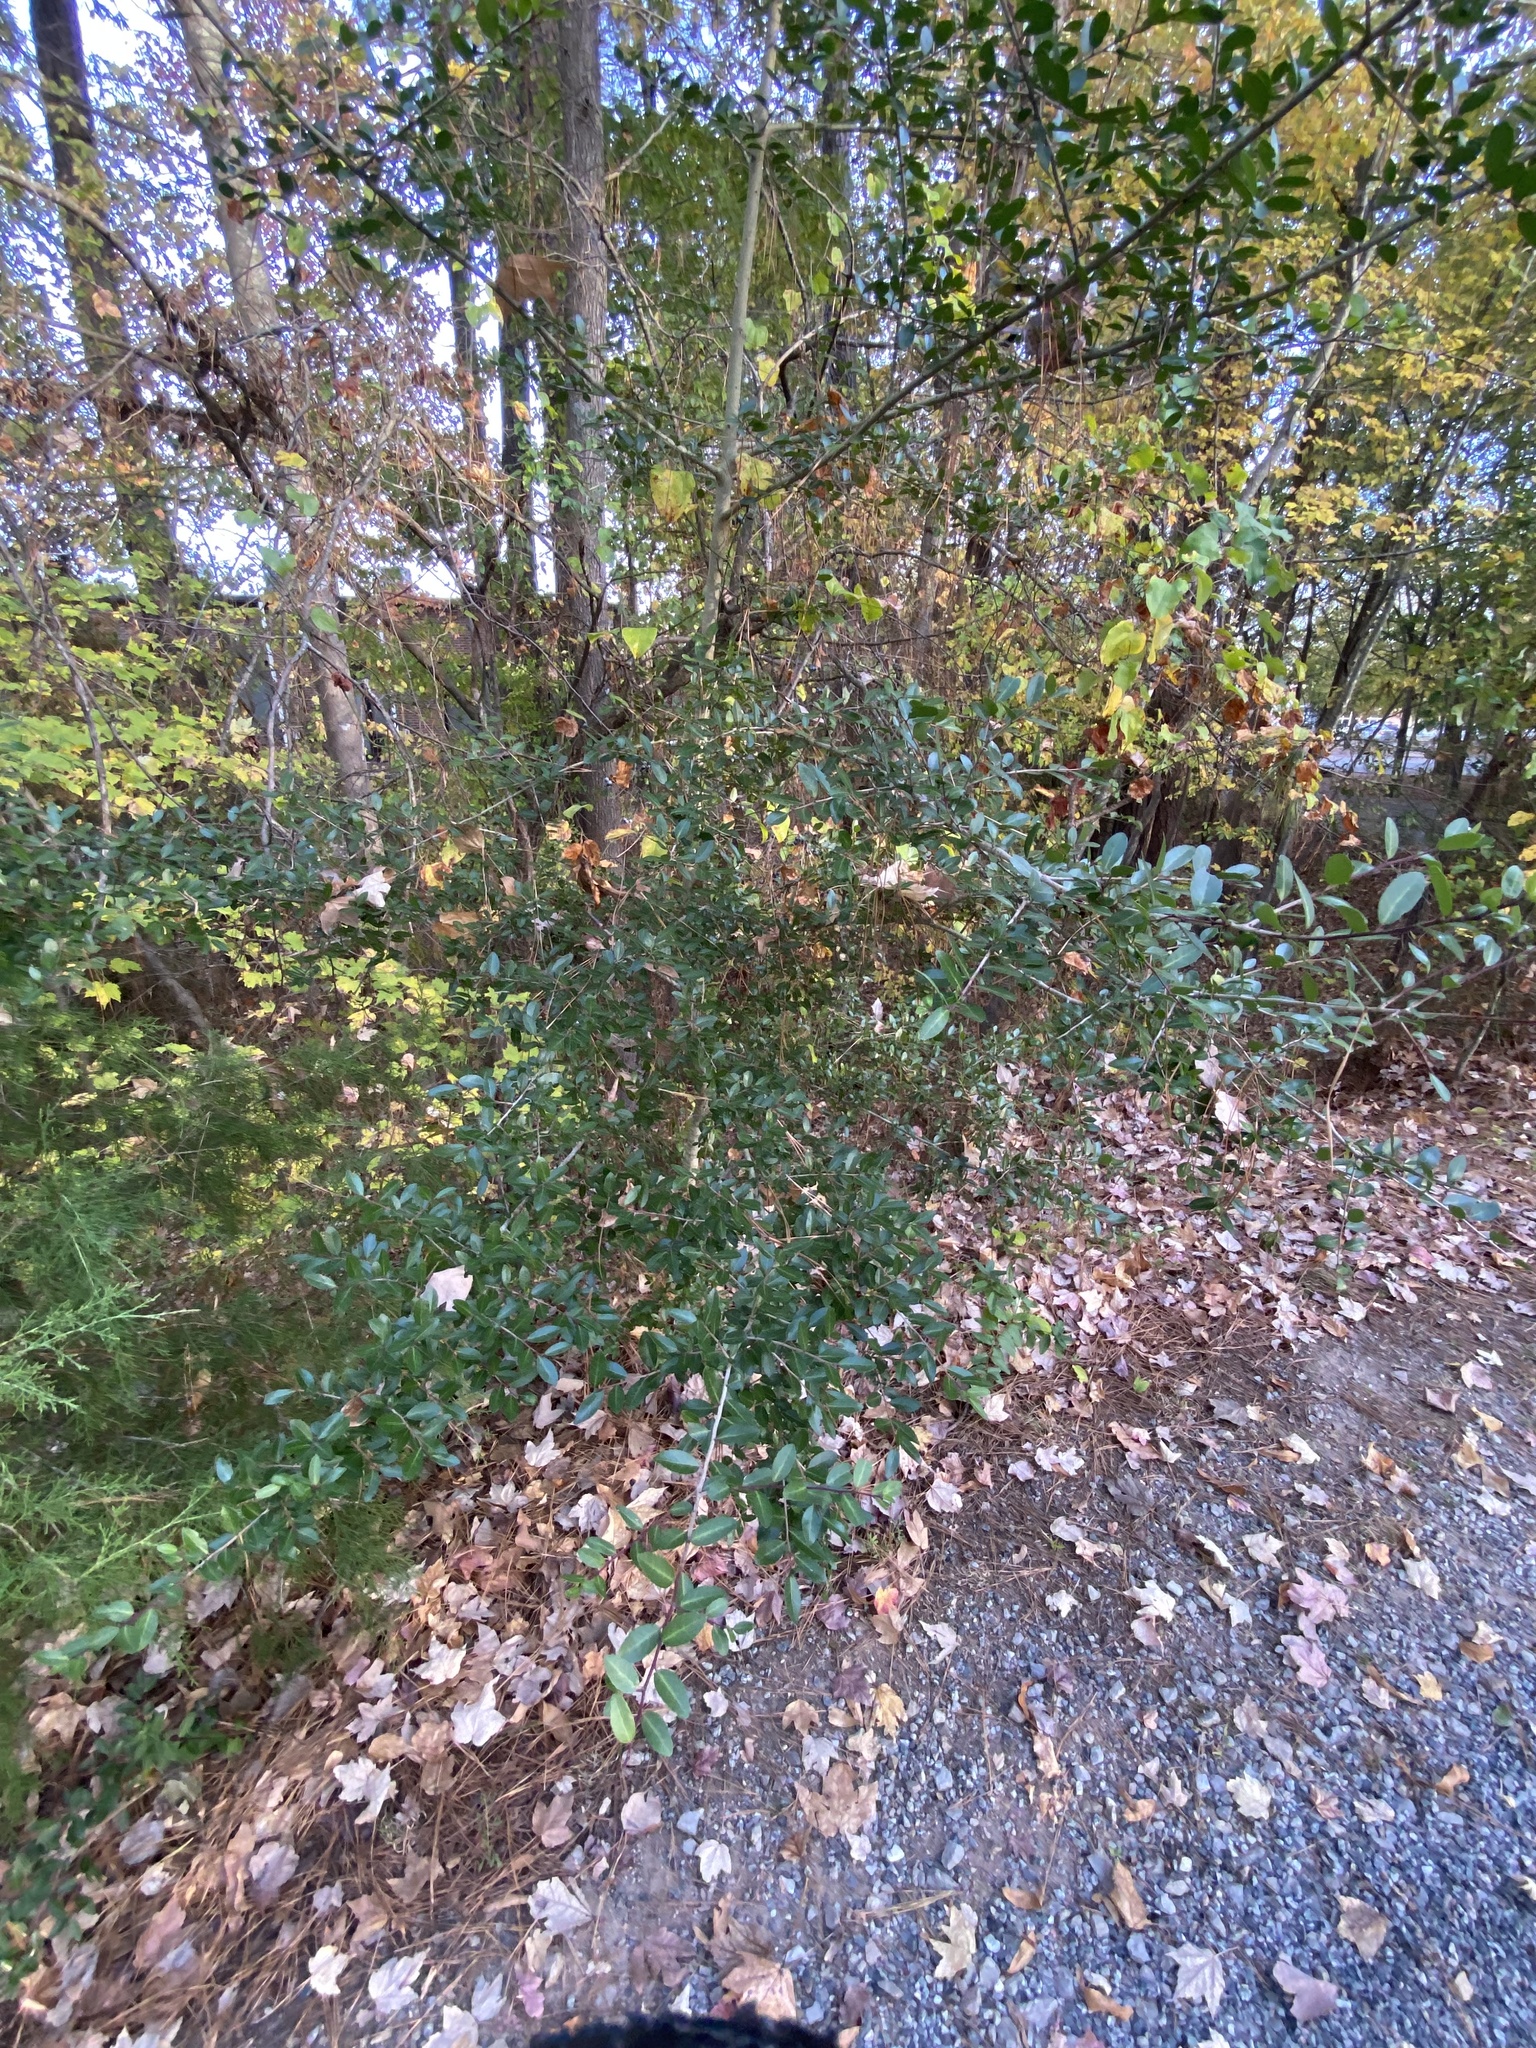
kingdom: Plantae
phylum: Tracheophyta
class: Magnoliopsida
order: Aquifoliales
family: Aquifoliaceae
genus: Ilex
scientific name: Ilex vomitoria
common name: Yaupon holly
